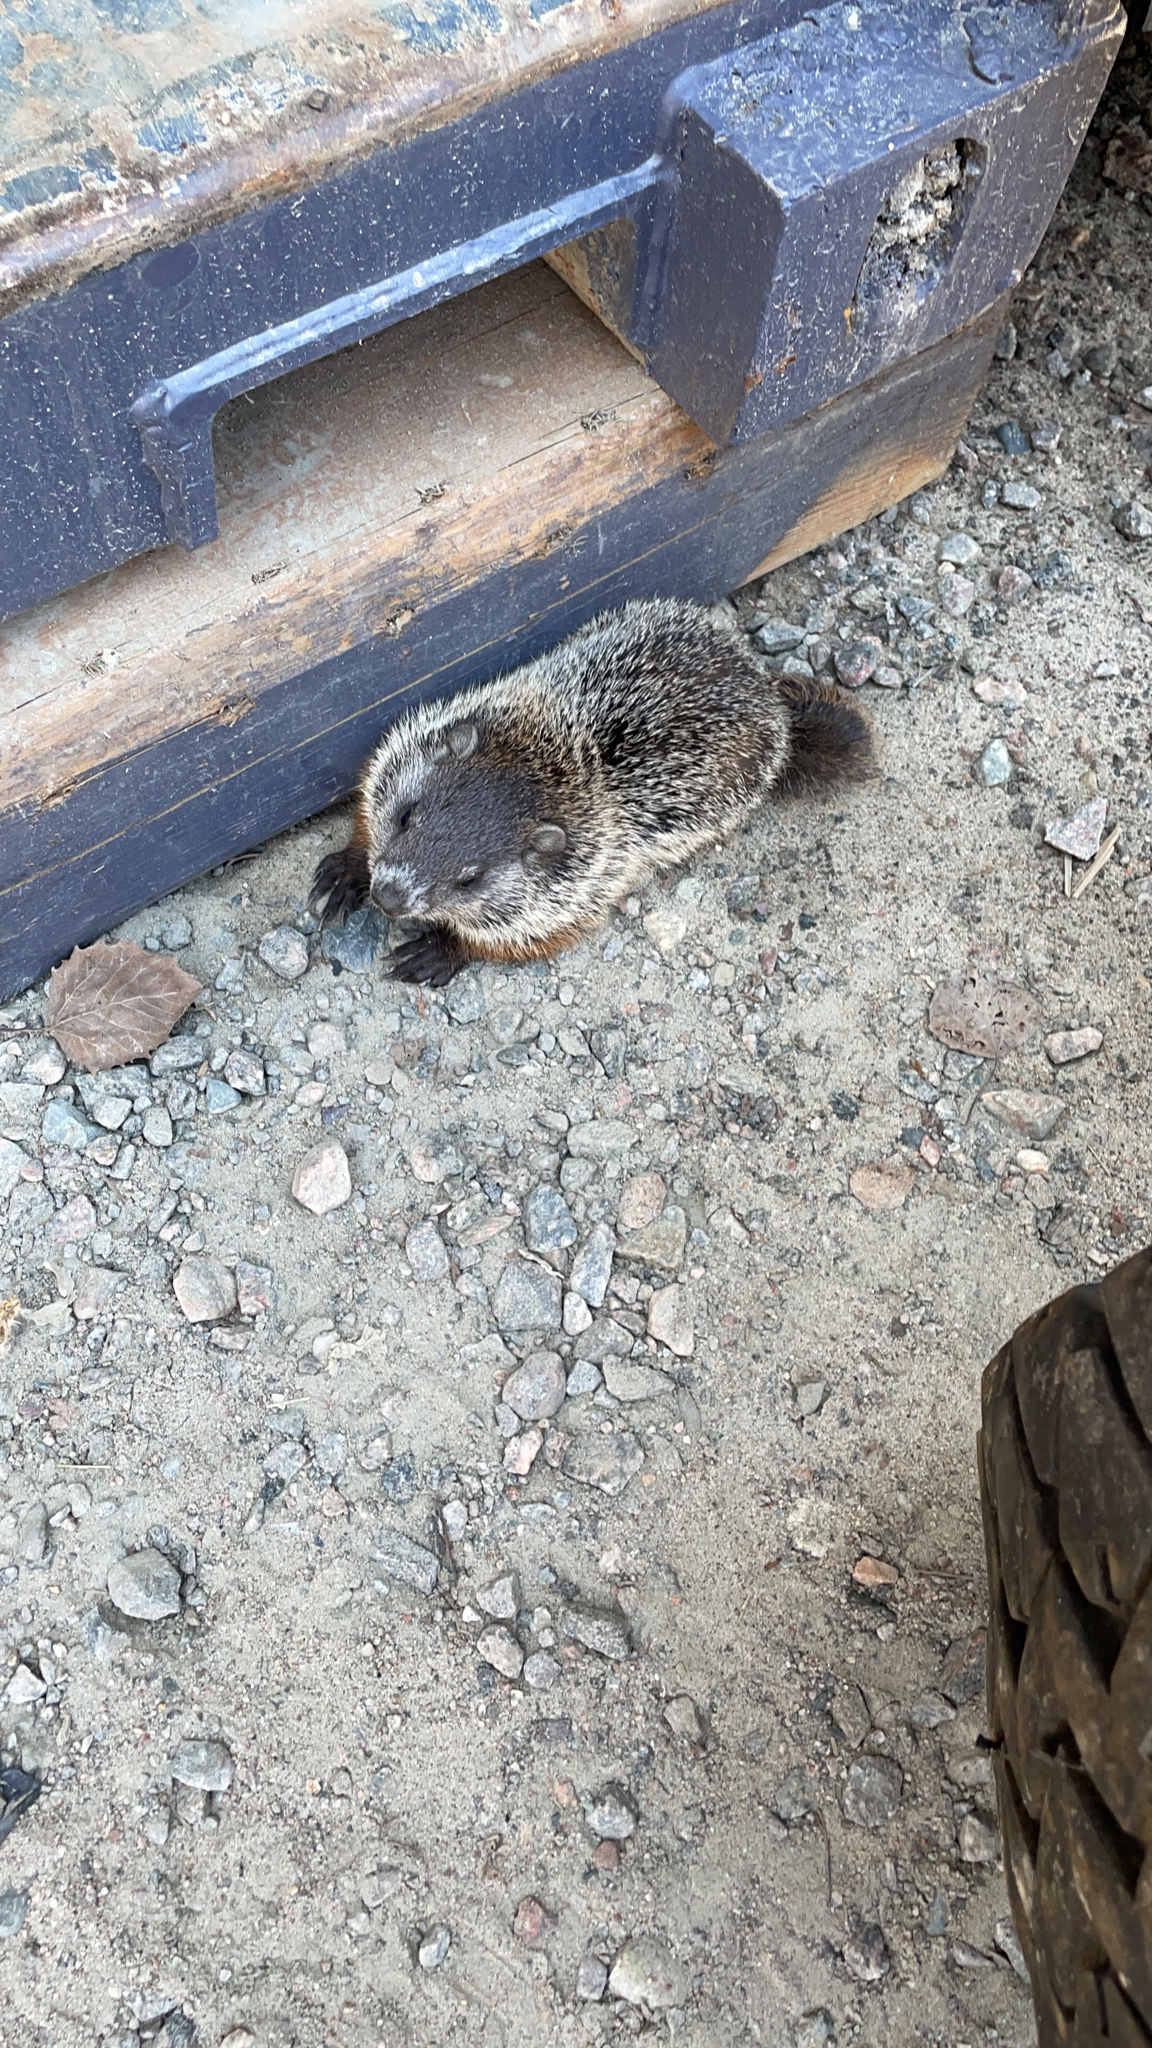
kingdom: Animalia
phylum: Chordata
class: Mammalia
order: Rodentia
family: Sciuridae
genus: Marmota
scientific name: Marmota monax
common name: Groundhog
